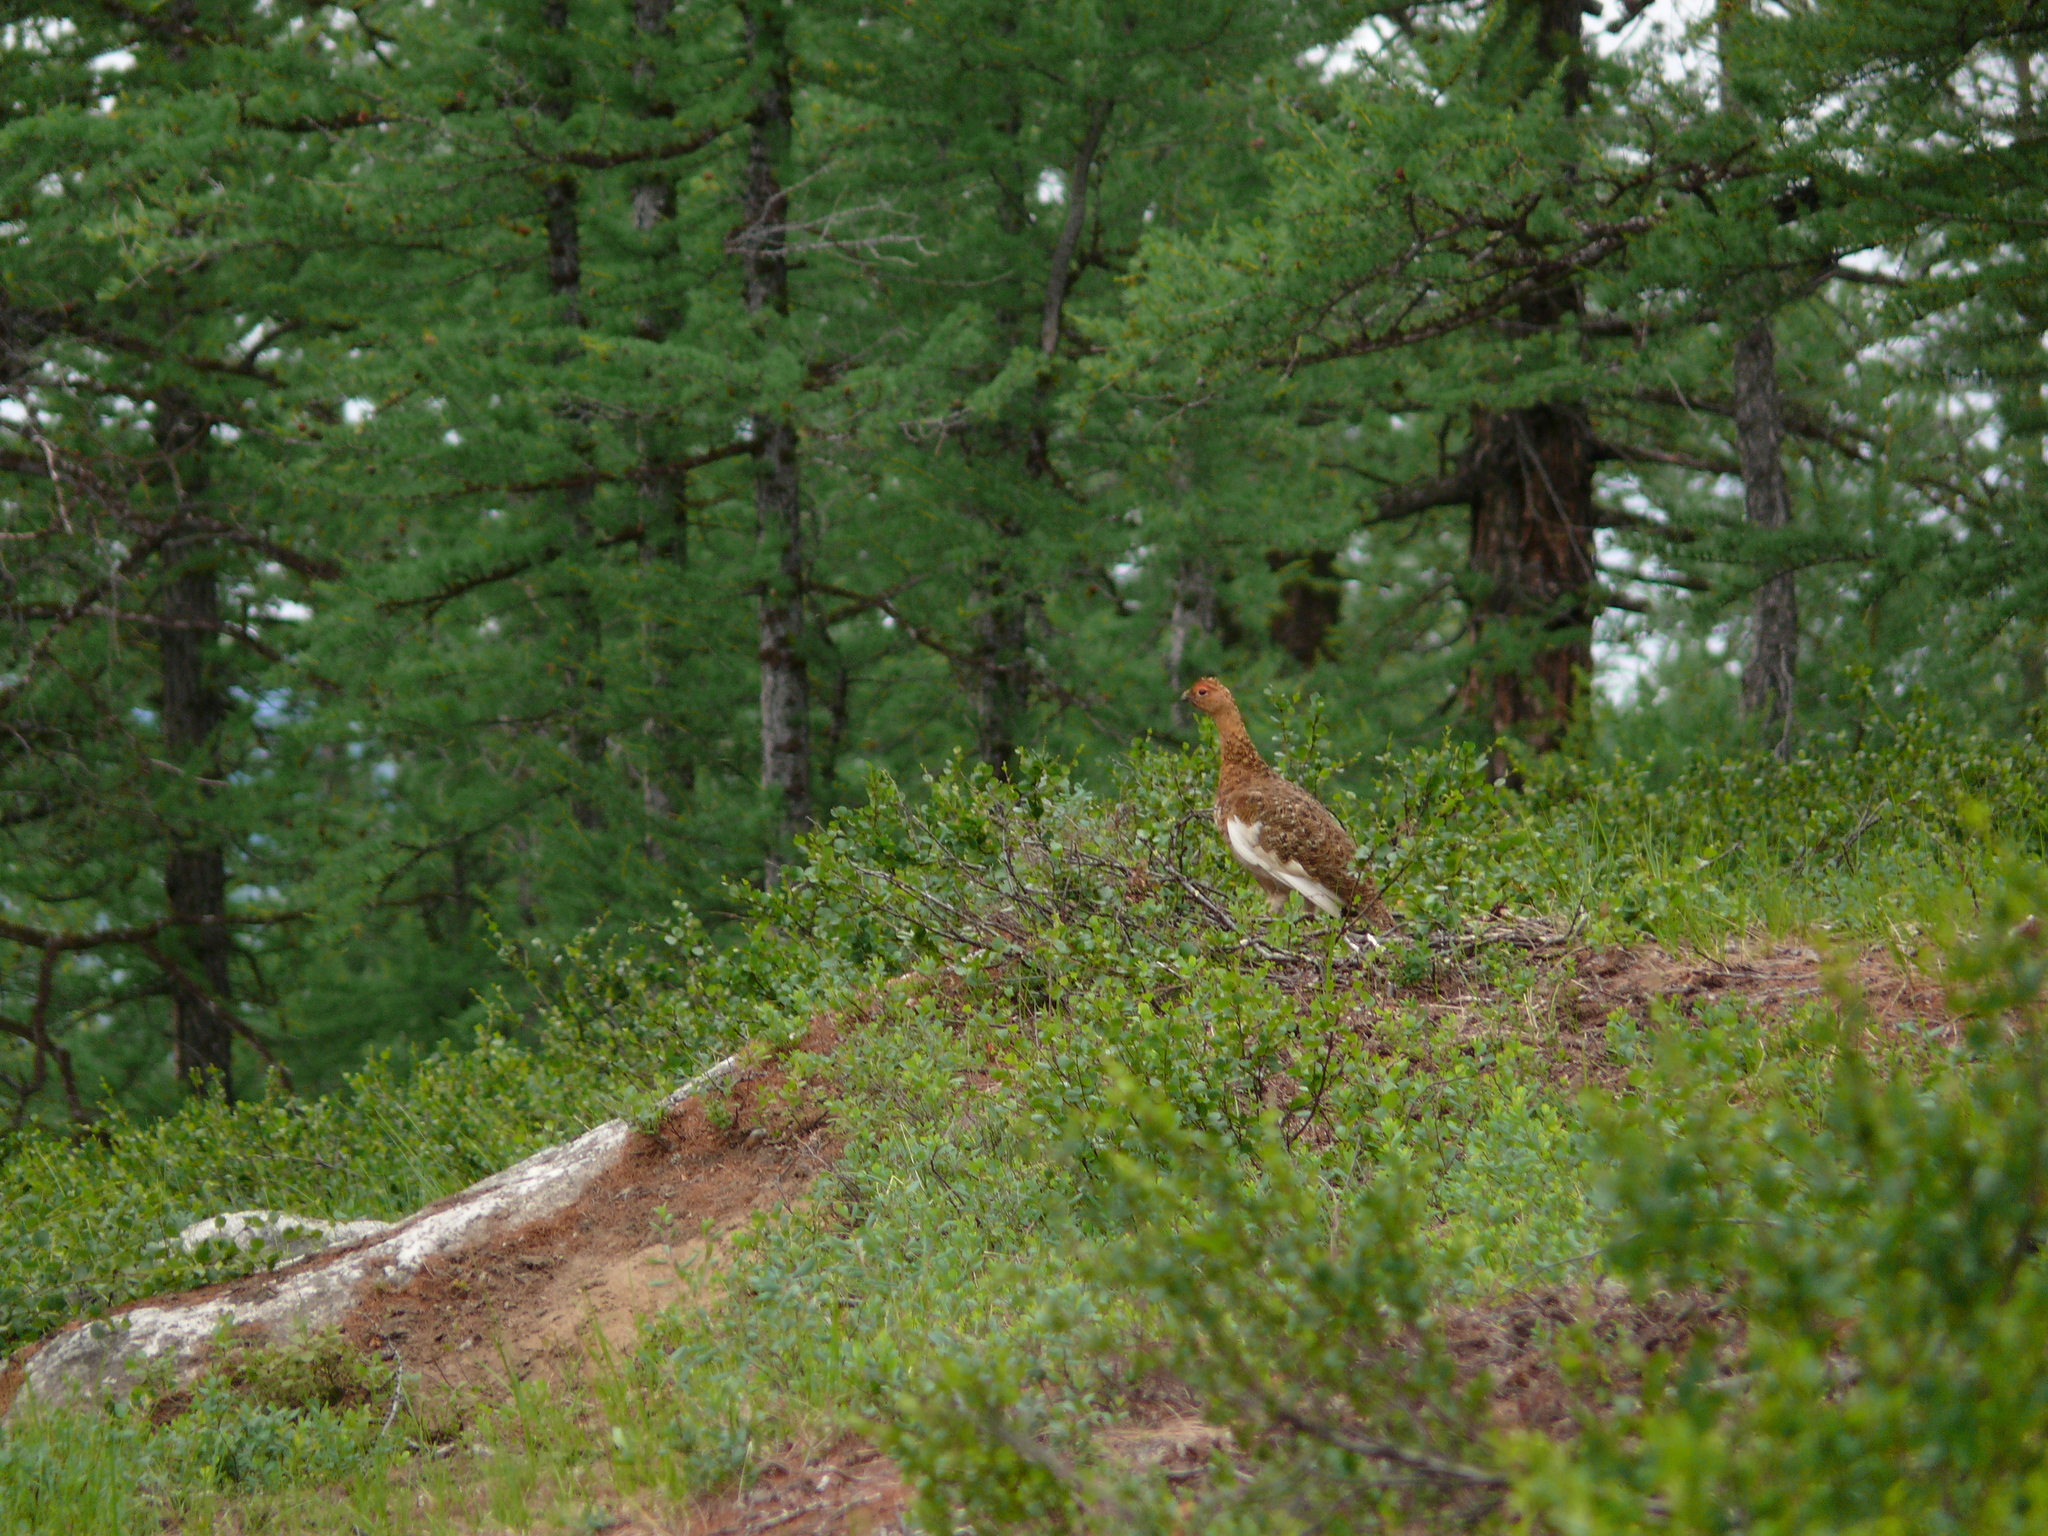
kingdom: Animalia
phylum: Chordata
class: Aves
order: Galliformes
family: Phasianidae
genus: Lagopus
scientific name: Lagopus lagopus
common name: Willow ptarmigan
